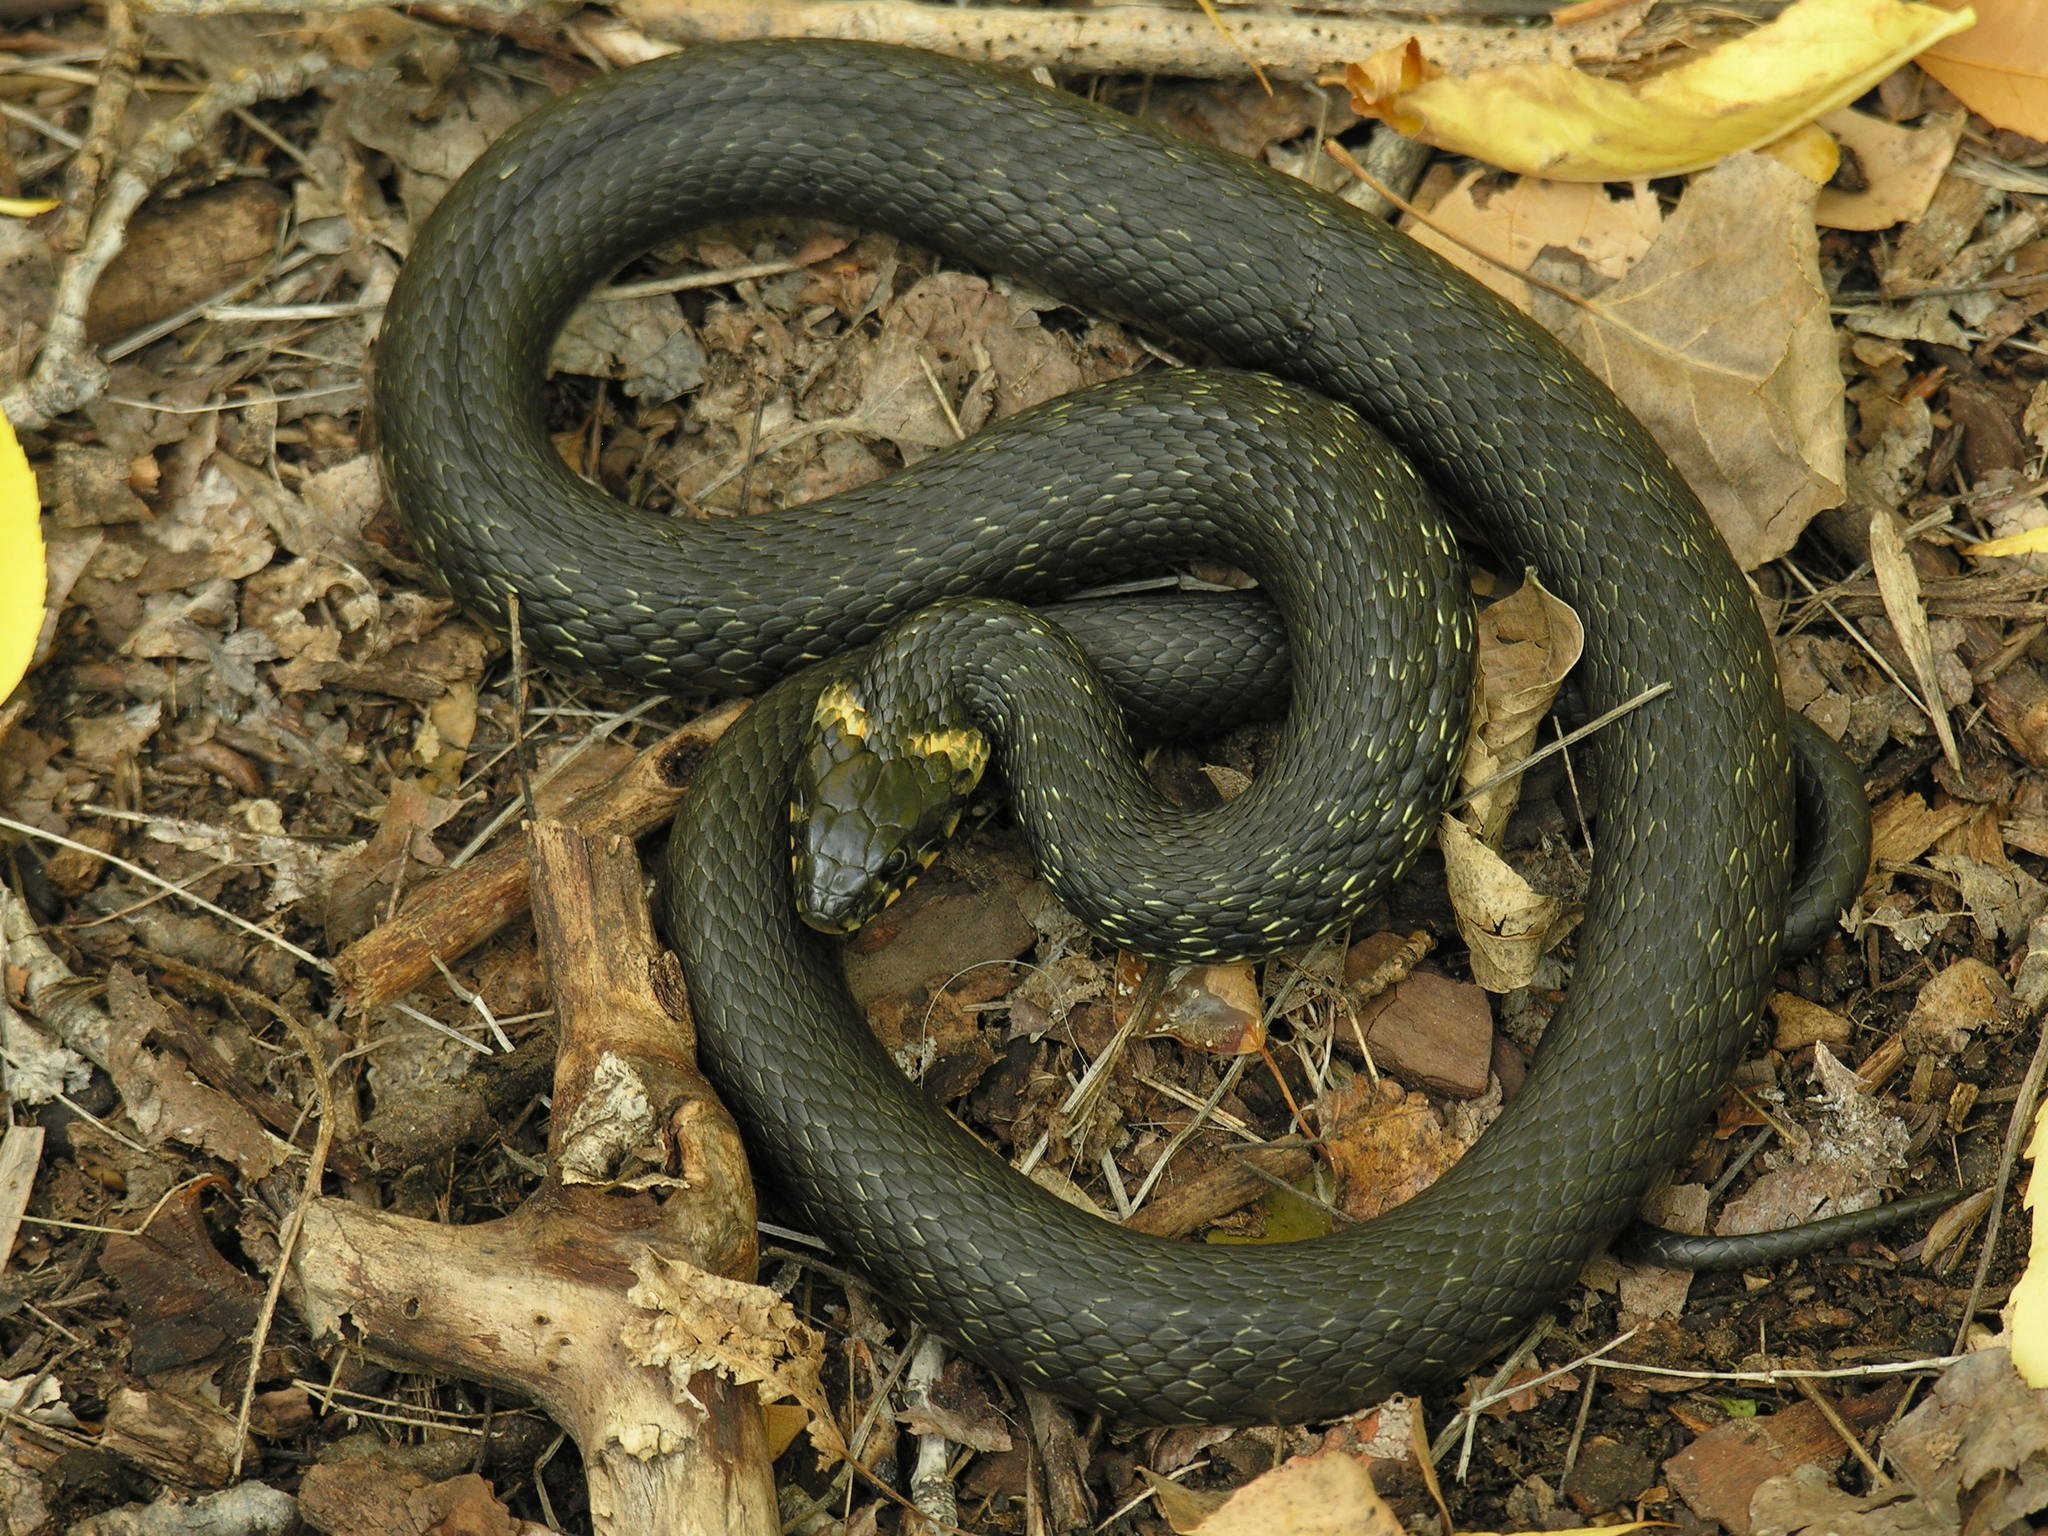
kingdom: Animalia
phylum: Chordata
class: Squamata
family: Colubridae
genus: Natrix
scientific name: Natrix natrix
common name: Grass snake
